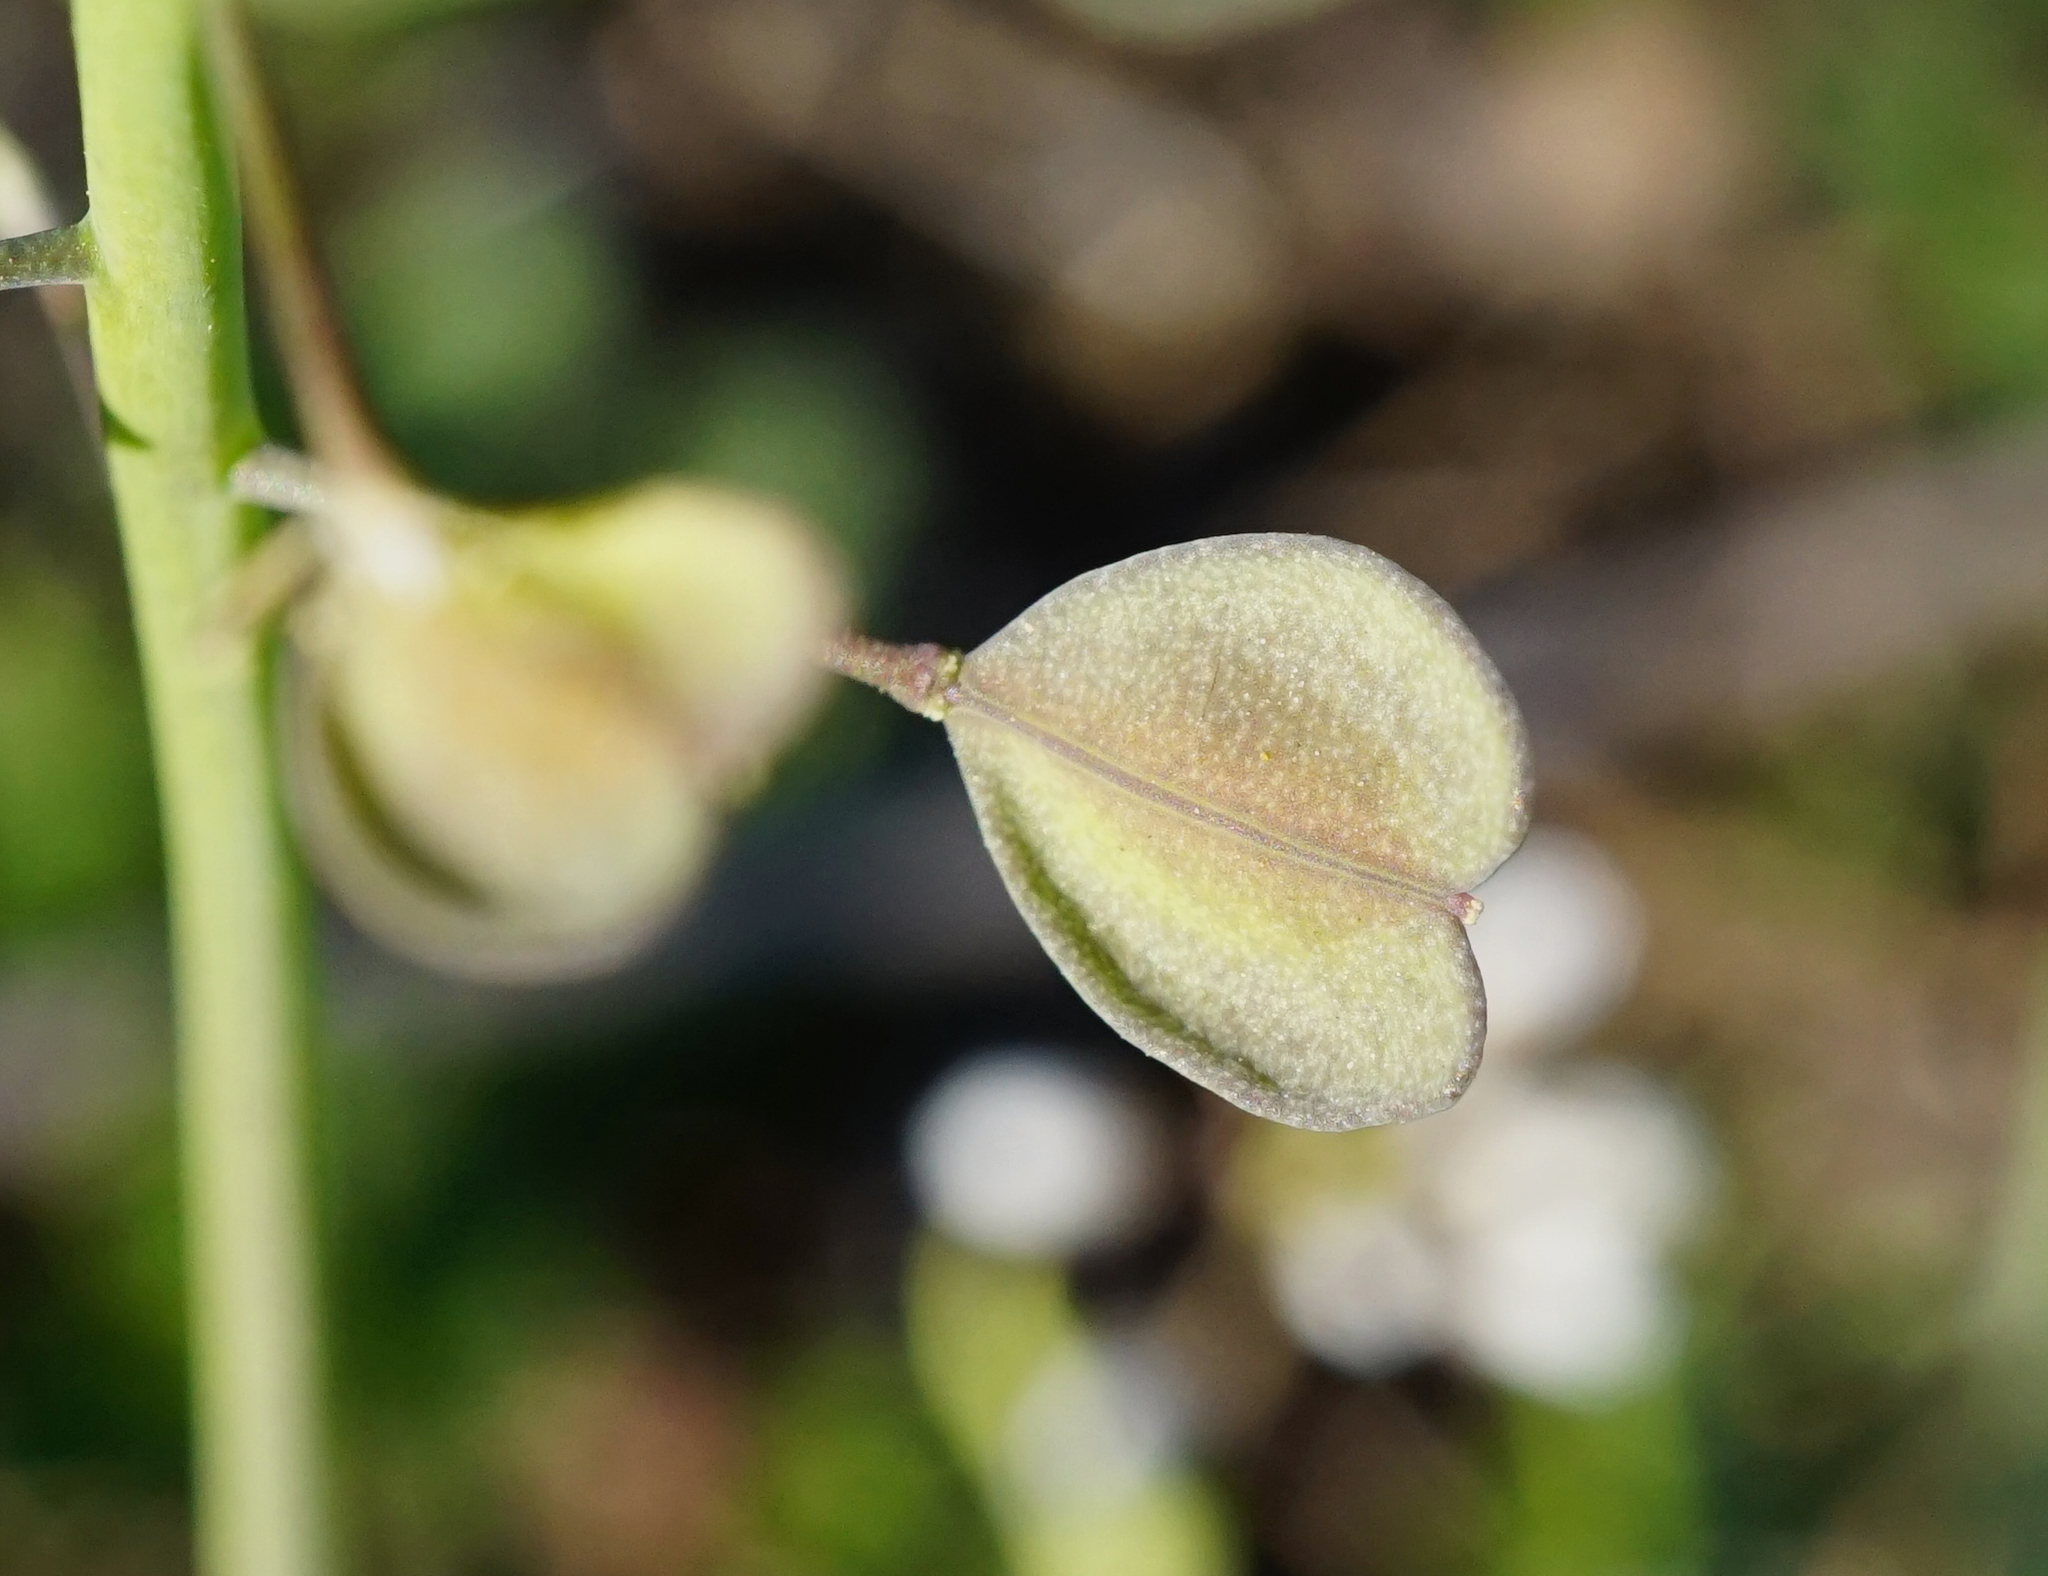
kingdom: Plantae
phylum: Tracheophyta
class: Magnoliopsida
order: Brassicales
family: Brassicaceae
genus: Noccaea
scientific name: Noccaea perfoliata
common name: Perfoliate pennycress
